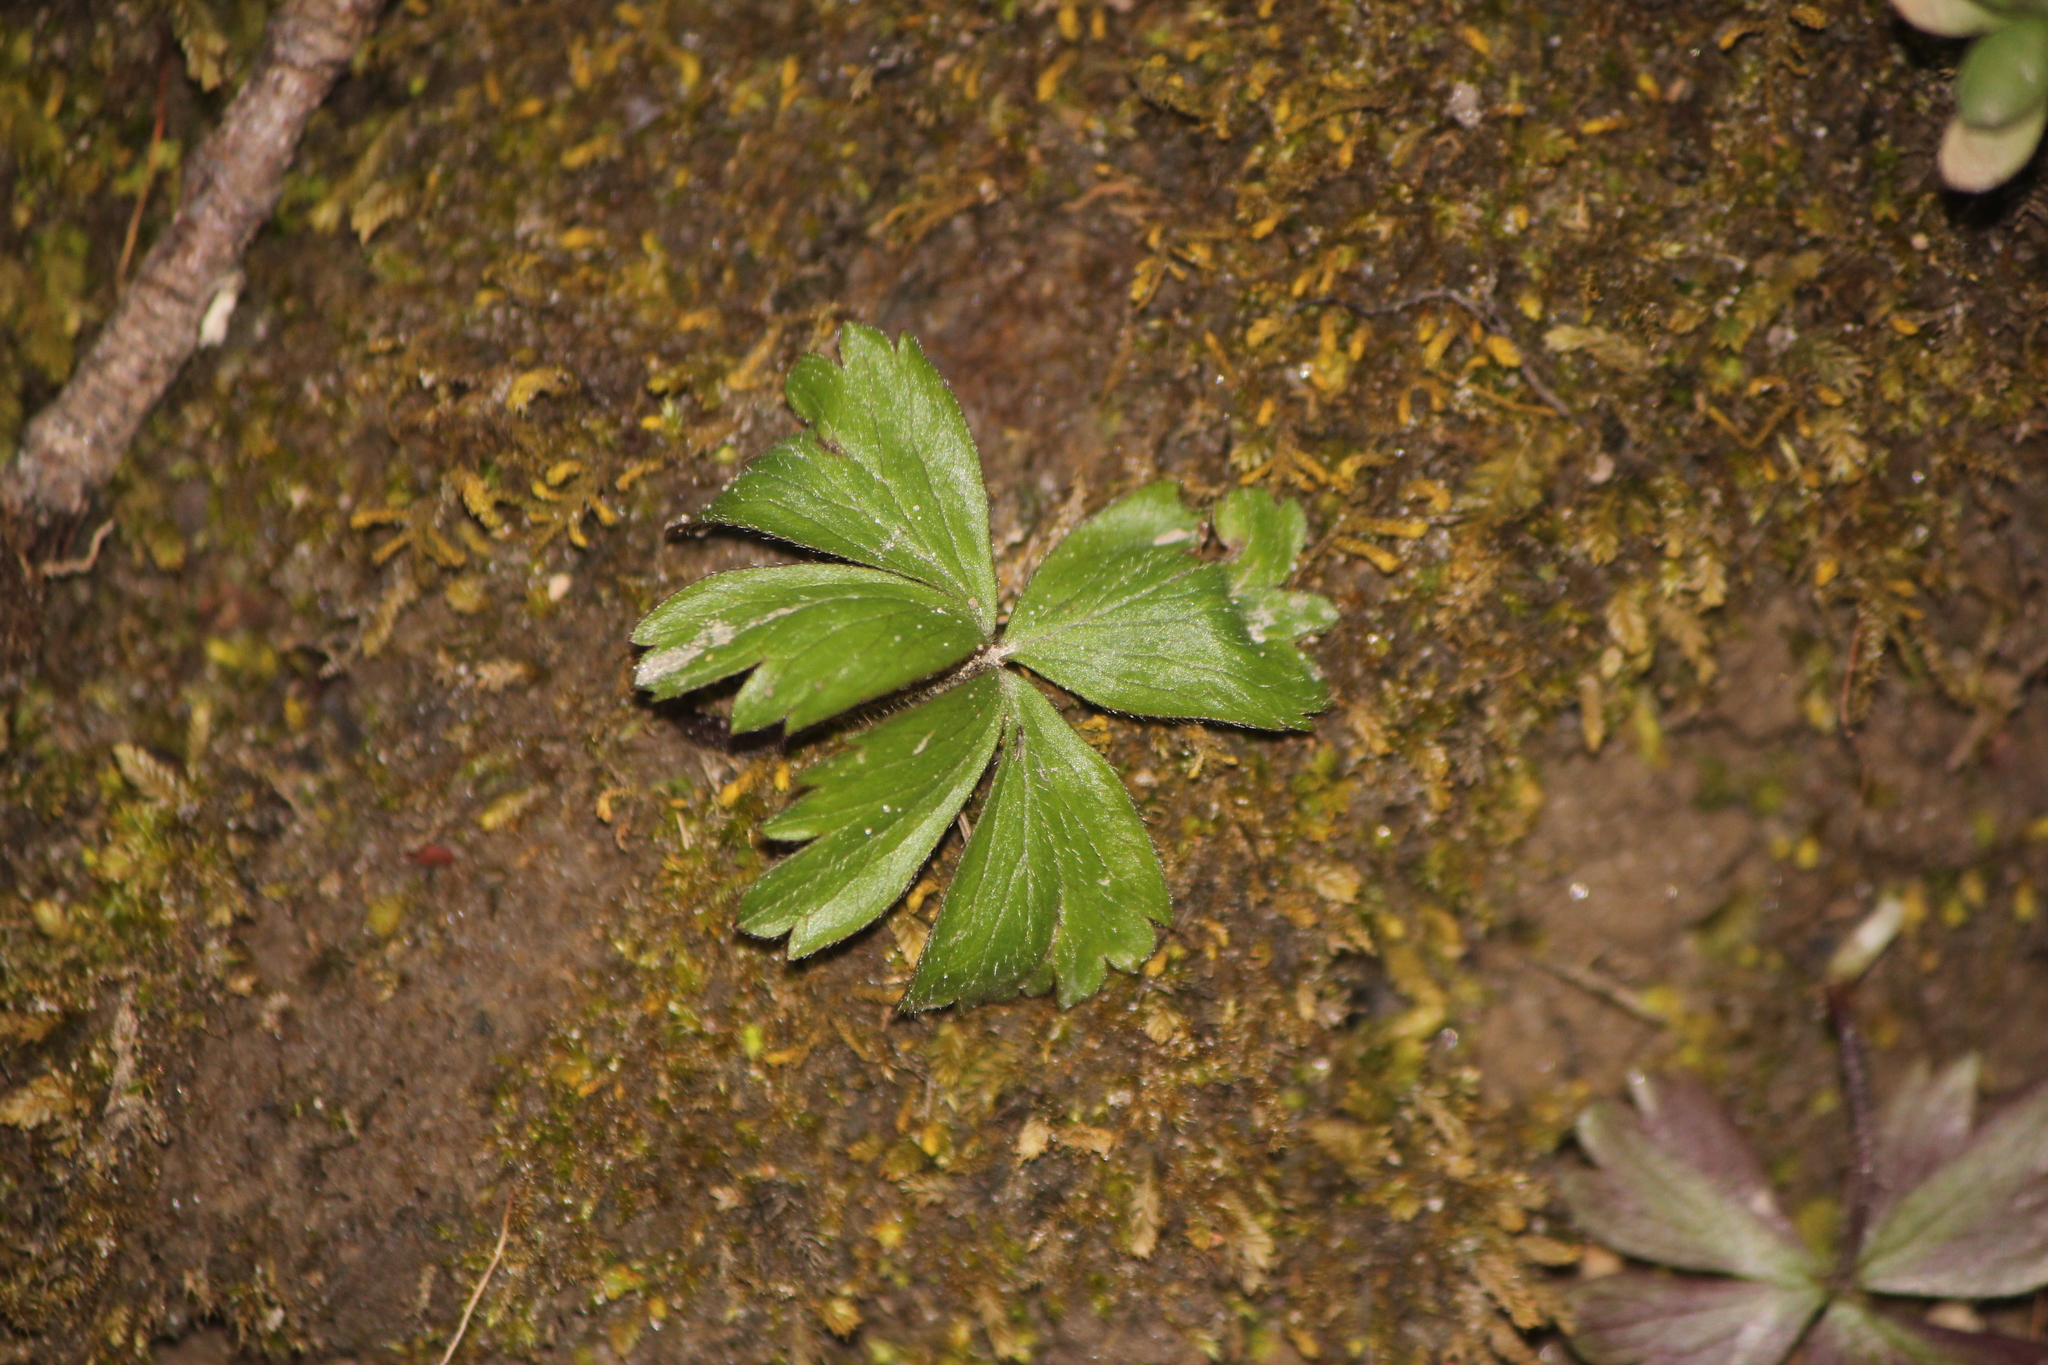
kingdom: Plantae
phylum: Tracheophyta
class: Magnoliopsida
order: Ranunculales
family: Ranunculaceae
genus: Anemone
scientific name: Anemone quinquefolia
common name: Wood anemone
